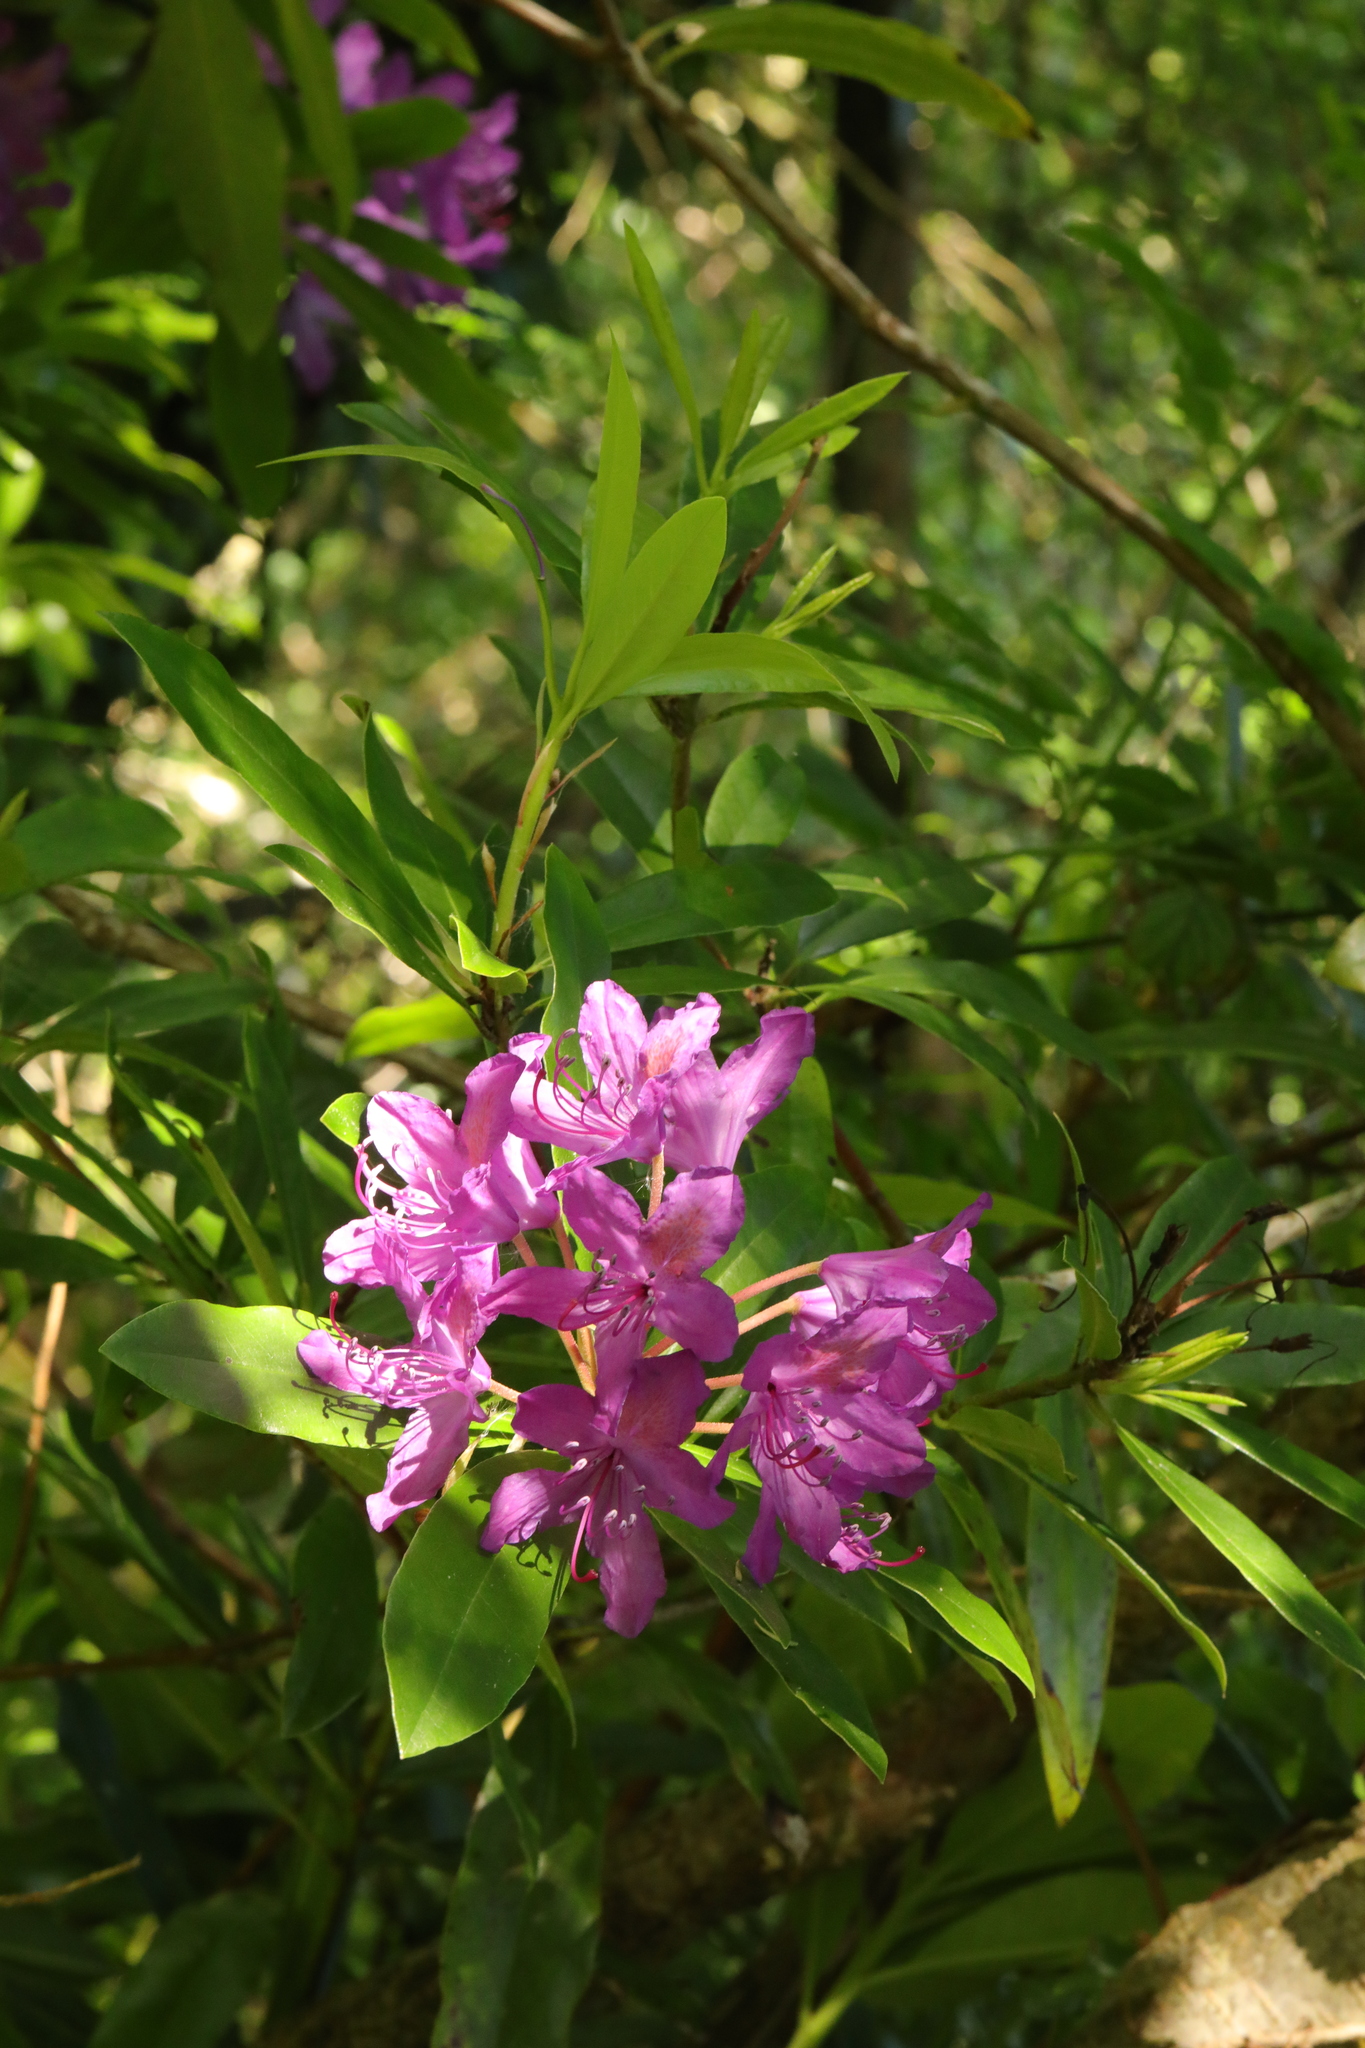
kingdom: Plantae
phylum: Tracheophyta
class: Magnoliopsida
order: Ericales
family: Ericaceae
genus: Rhododendron
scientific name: Rhododendron ponticum
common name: Rhododendron
